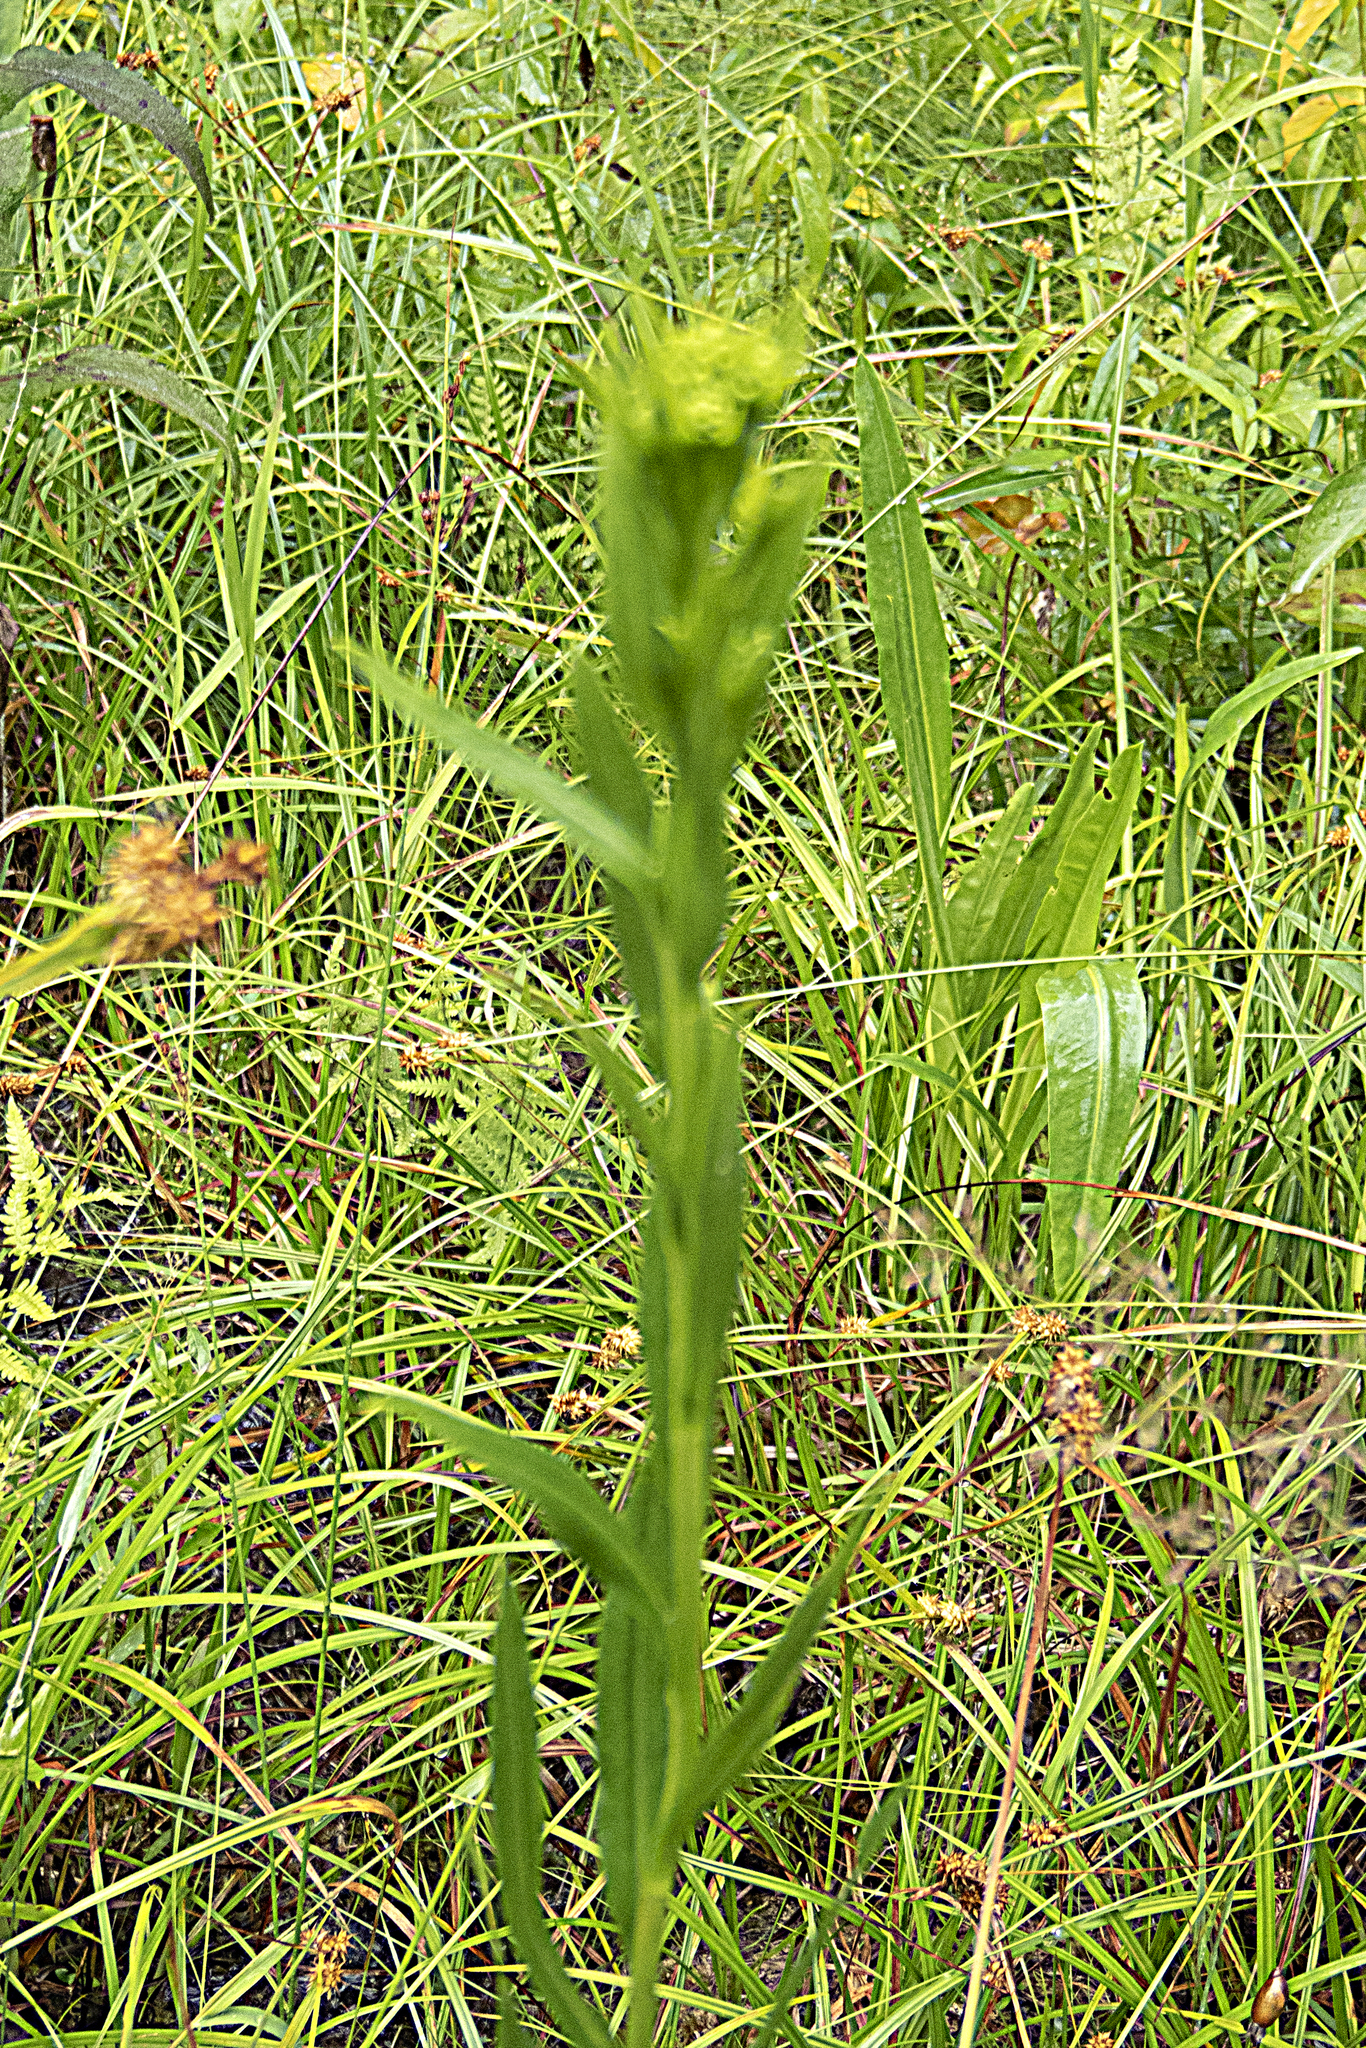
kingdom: Plantae
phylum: Tracheophyta
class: Magnoliopsida
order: Asterales
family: Asteraceae
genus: Solidago
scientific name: Solidago ohioensis
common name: Ohio goldenrod
